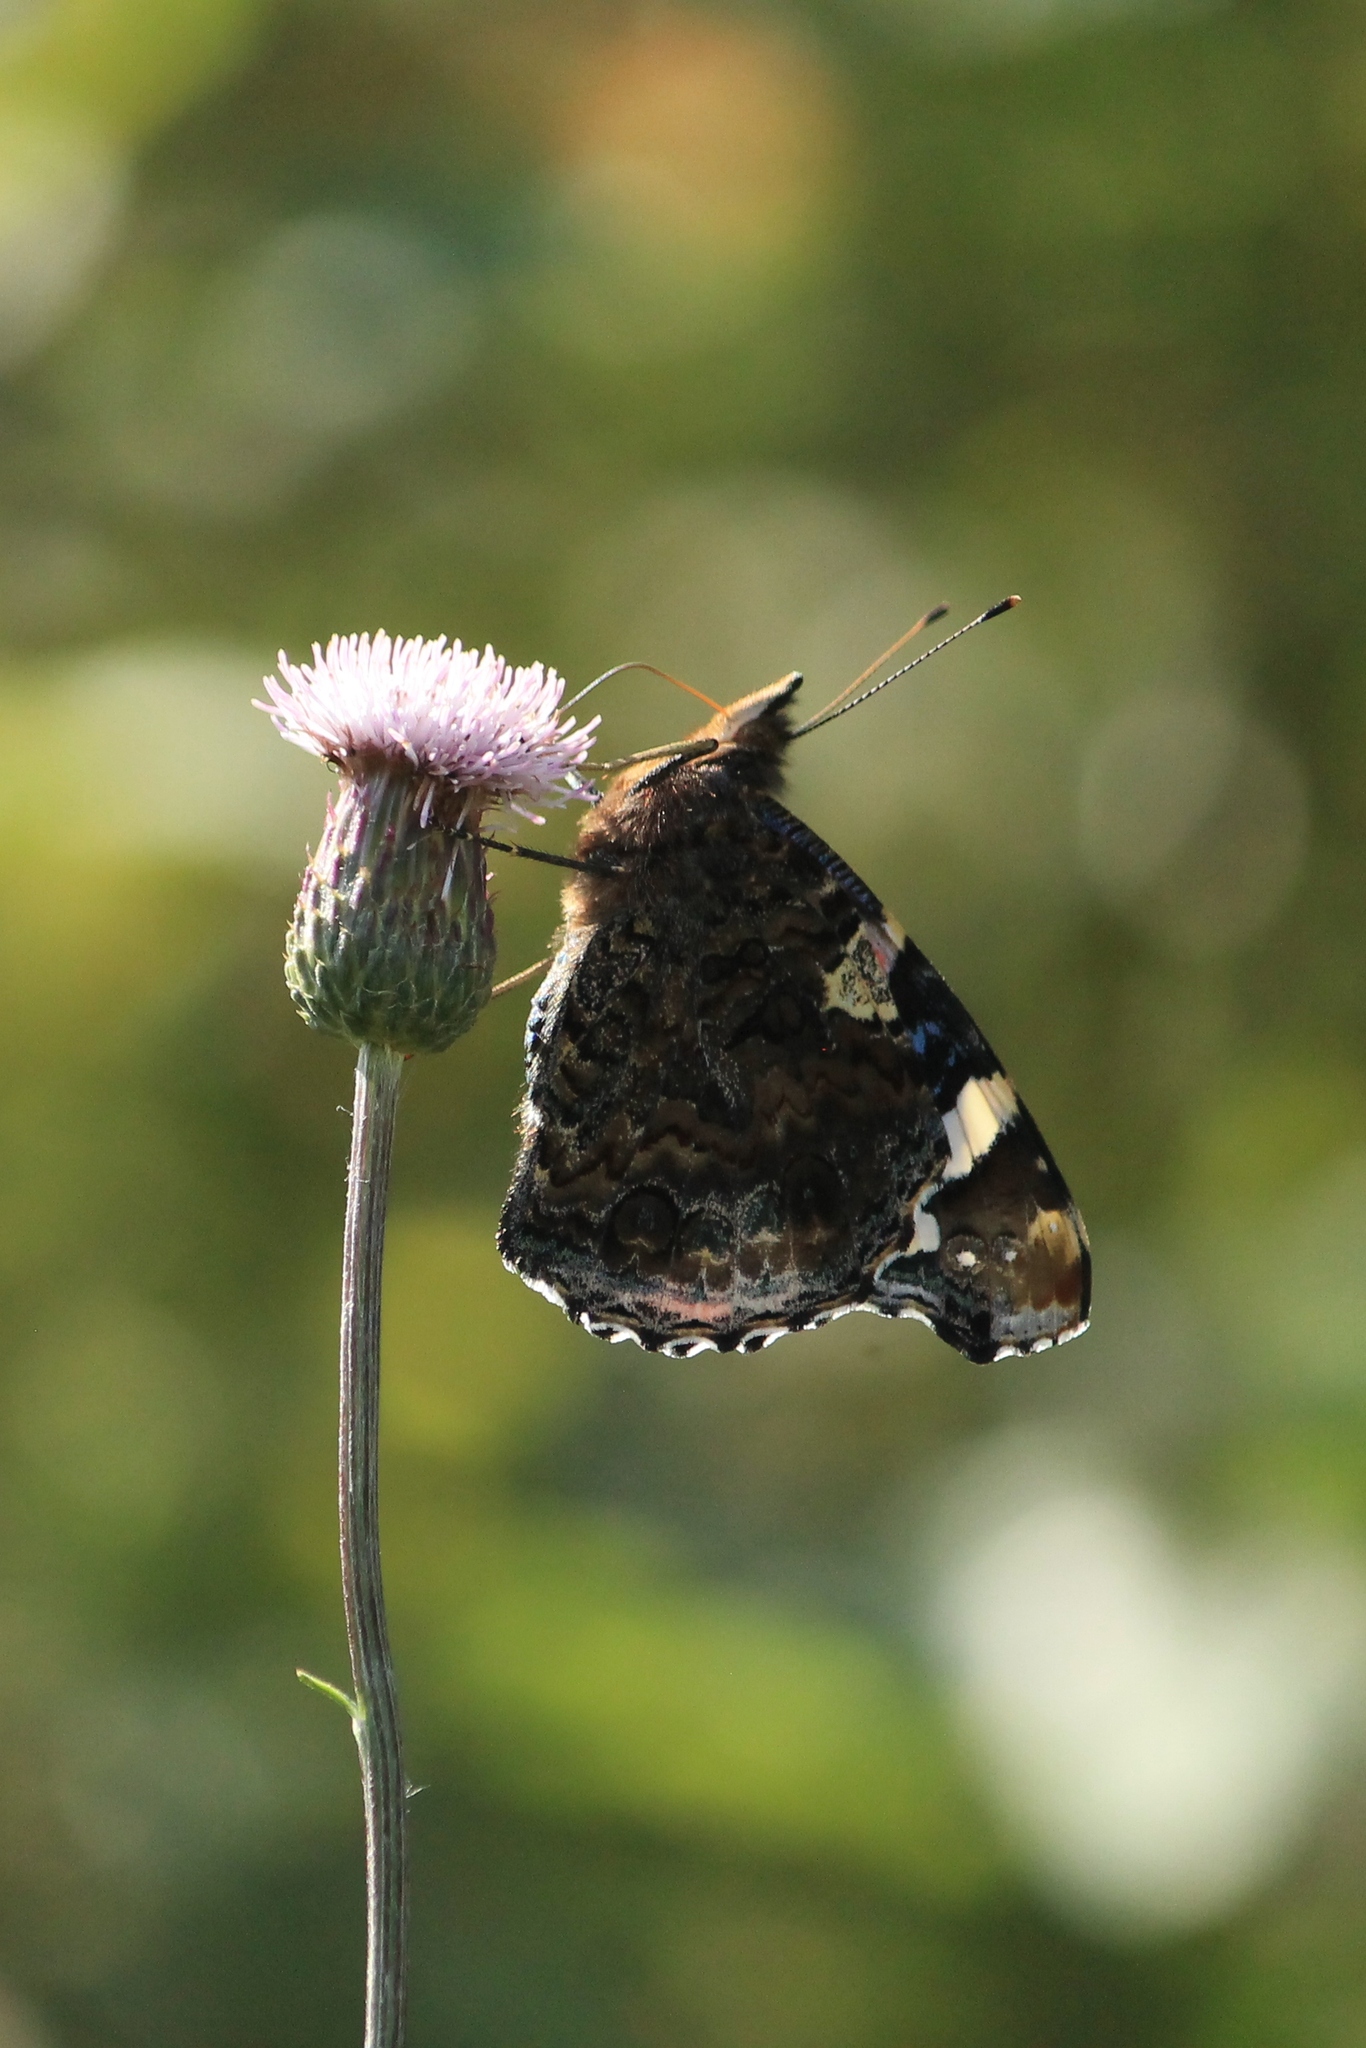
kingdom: Animalia
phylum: Arthropoda
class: Insecta
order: Lepidoptera
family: Nymphalidae
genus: Vanessa
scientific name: Vanessa atalanta
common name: Red admiral
